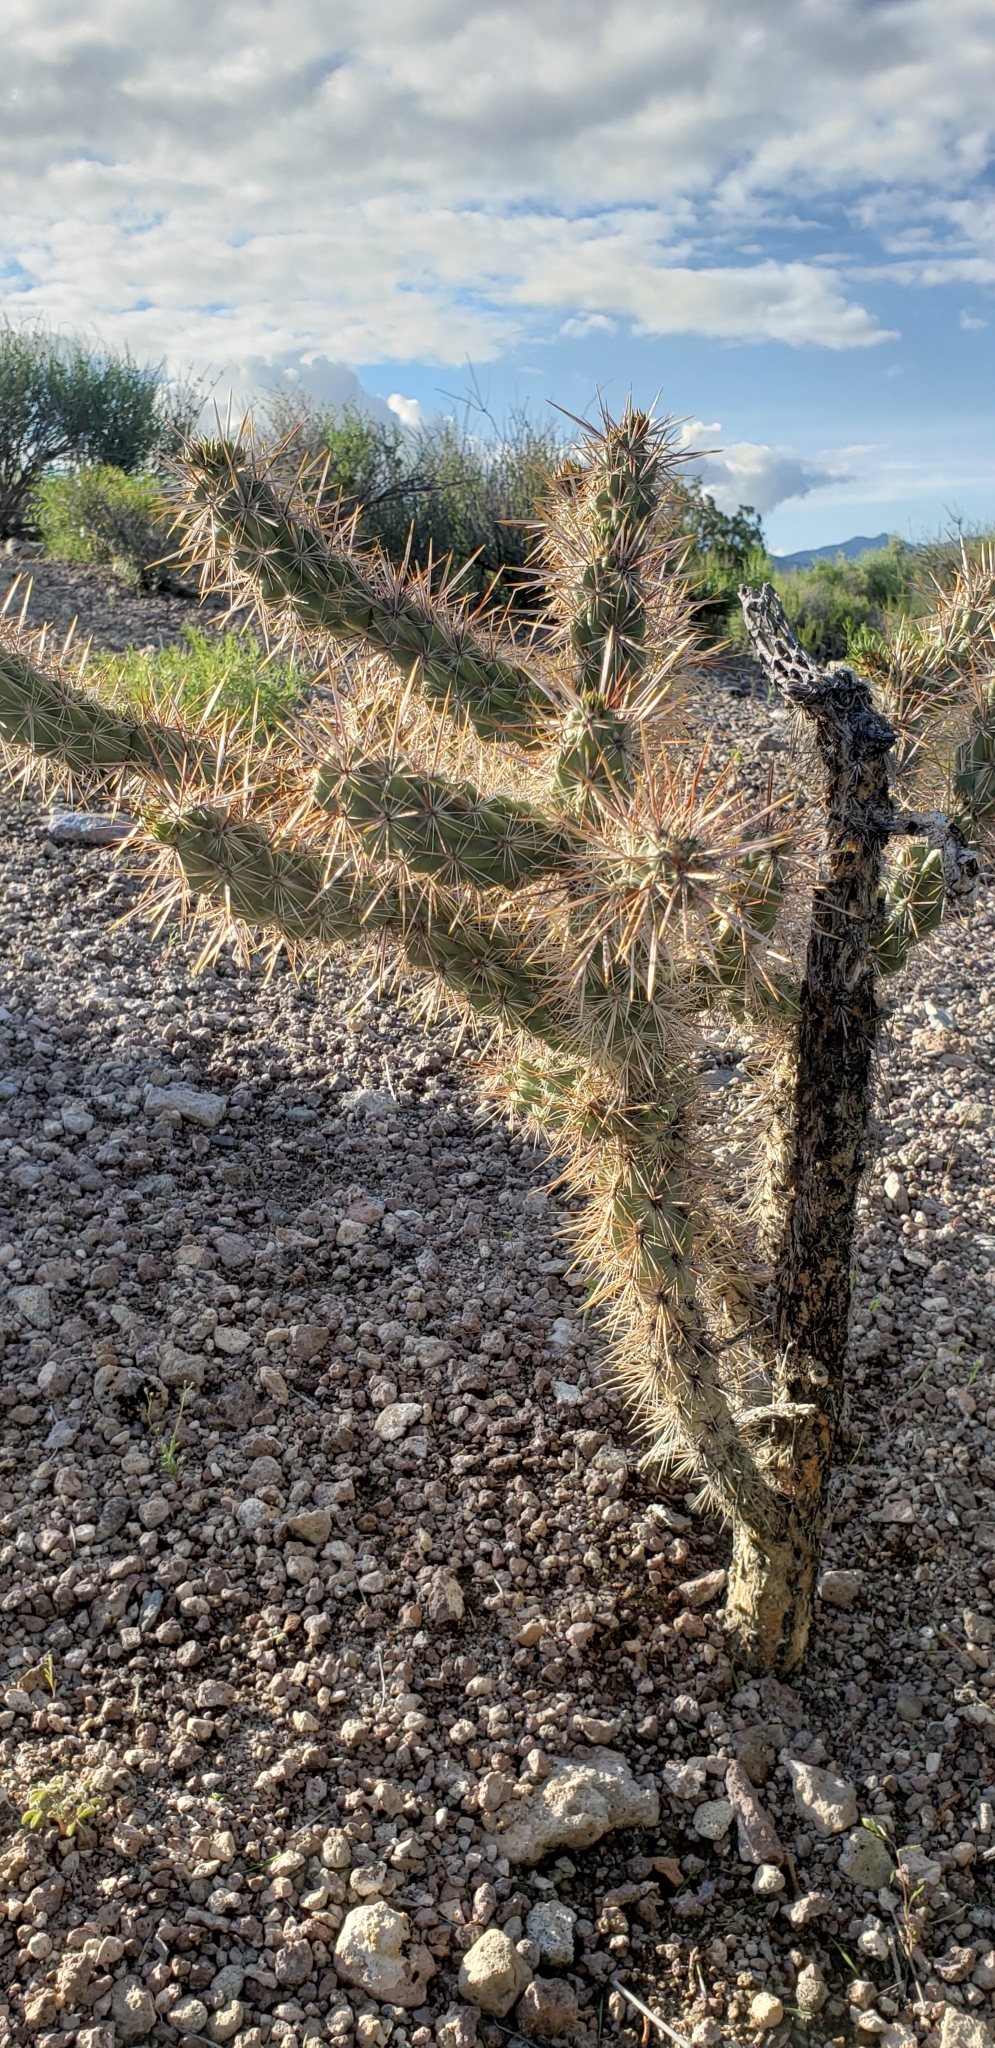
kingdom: Plantae
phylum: Tracheophyta
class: Magnoliopsida
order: Caryophyllales
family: Cactaceae
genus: Cylindropuntia
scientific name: Cylindropuntia echinocarpa
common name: Ground cholla
